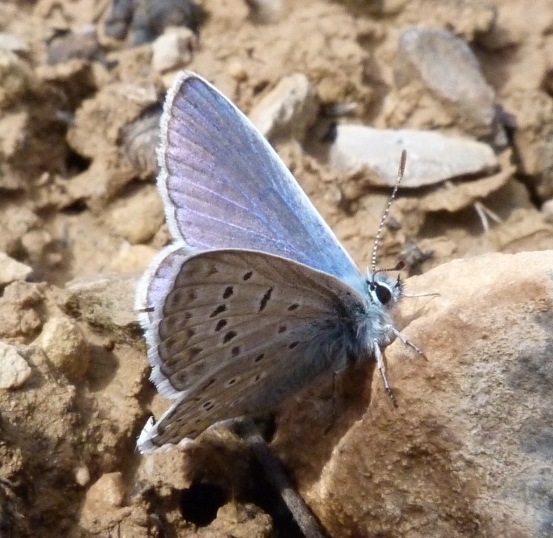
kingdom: Animalia
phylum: Arthropoda
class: Insecta
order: Lepidoptera
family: Lycaenidae
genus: Polyommatus
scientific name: Polyommatus icarus
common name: Common blue
